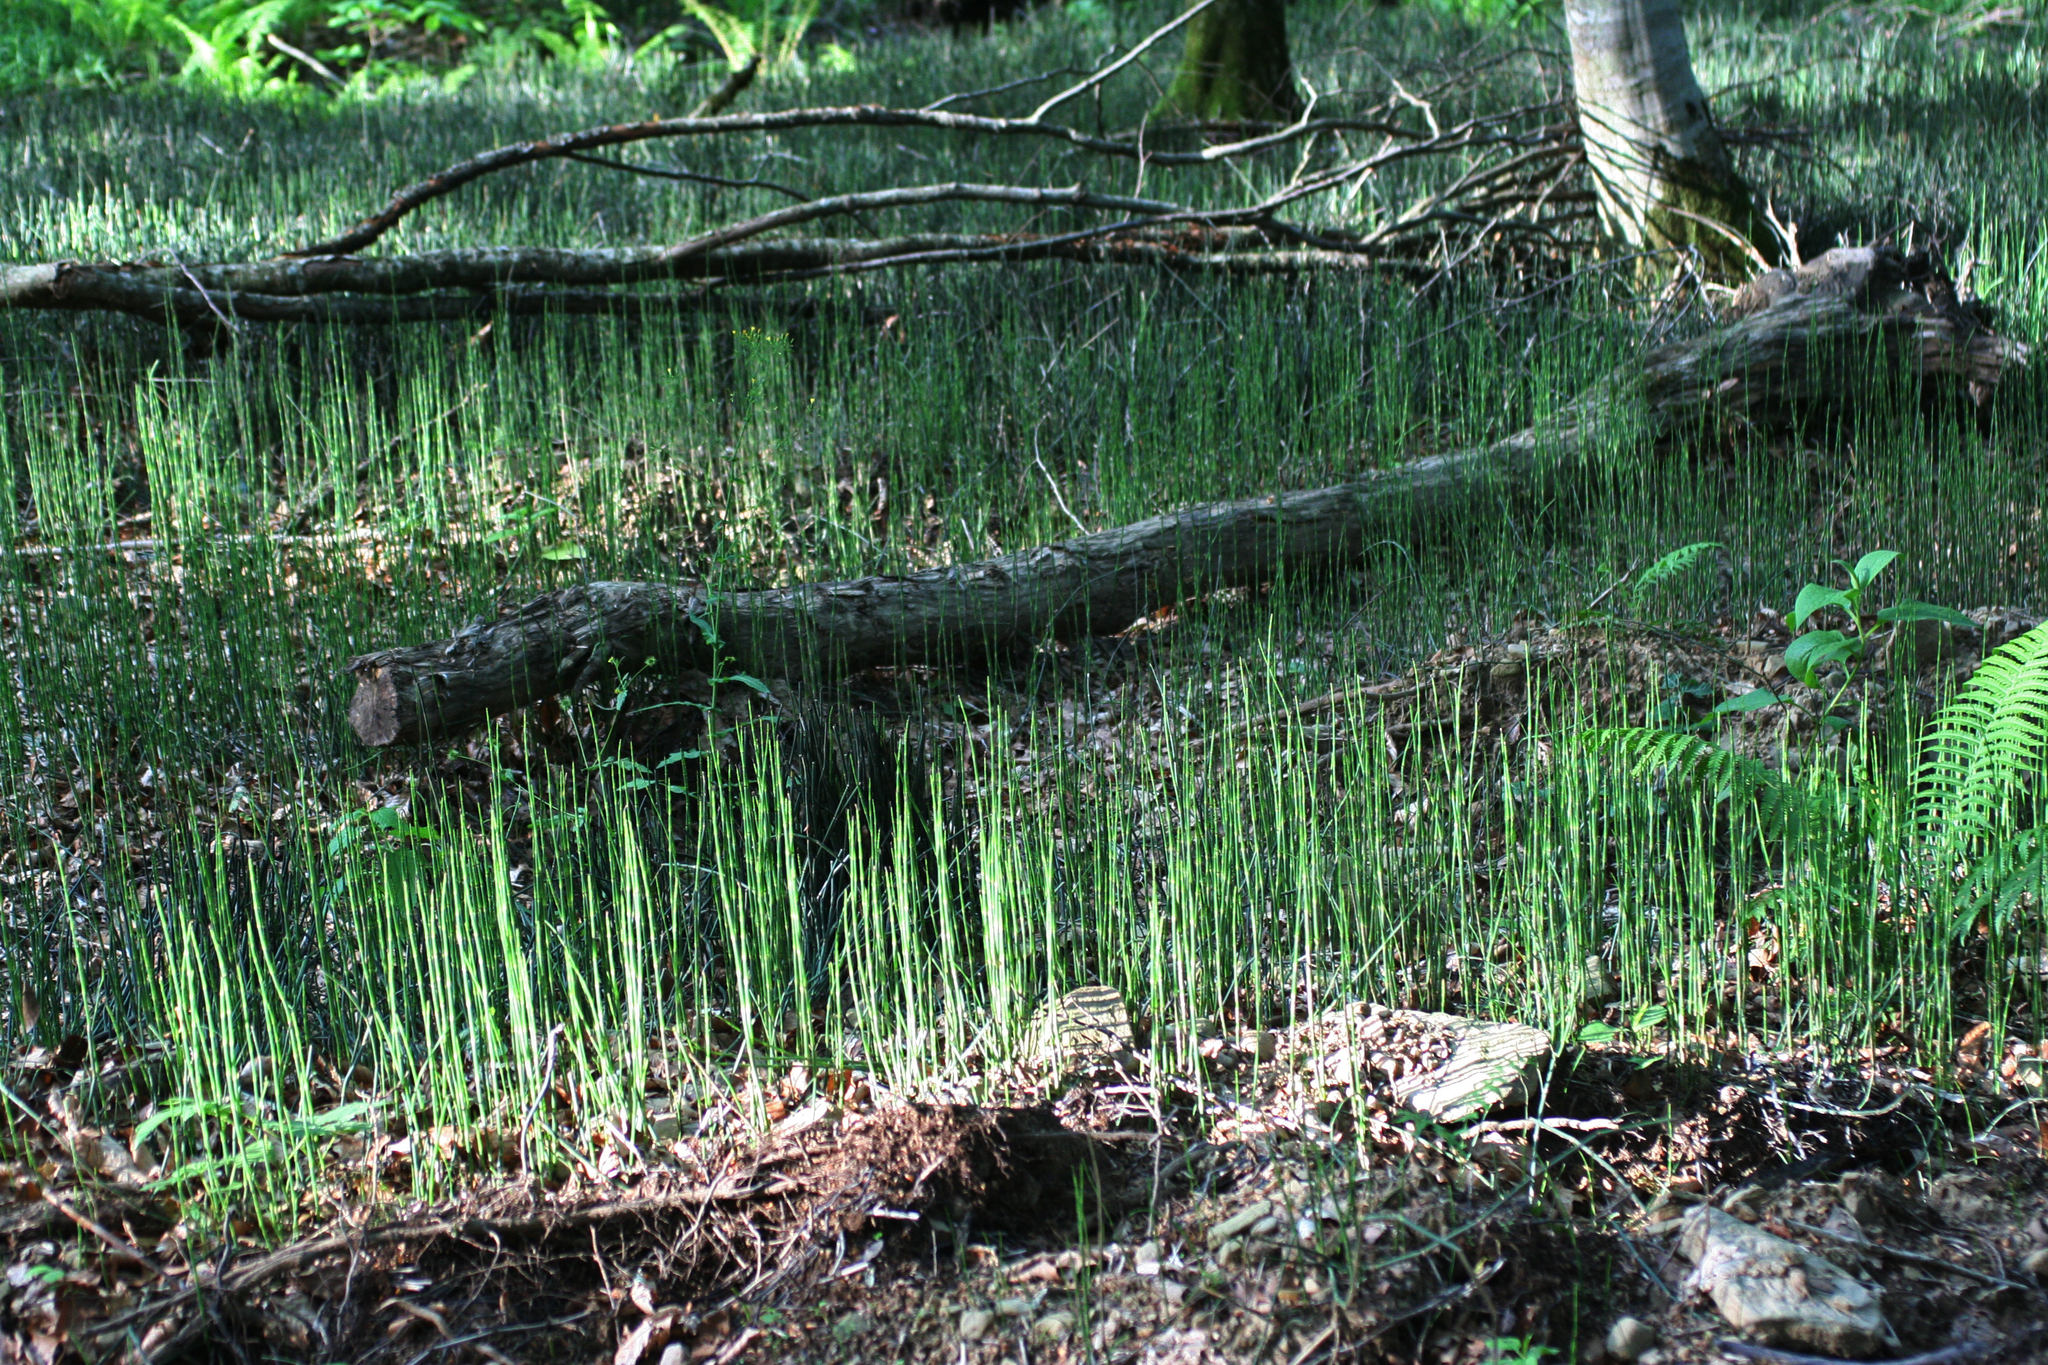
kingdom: Plantae
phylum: Tracheophyta
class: Polypodiopsida
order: Equisetales
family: Equisetaceae
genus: Equisetum
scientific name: Equisetum hyemale
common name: Rough horsetail
